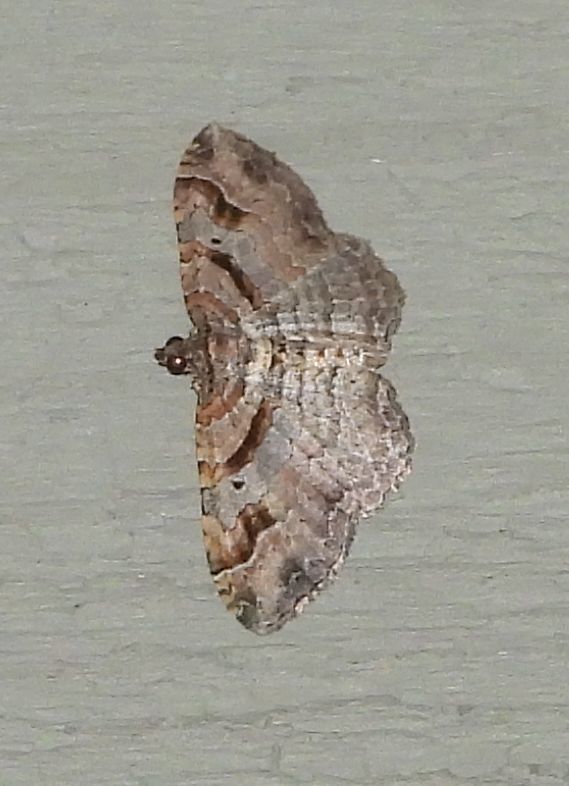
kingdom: Animalia
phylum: Arthropoda
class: Insecta
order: Lepidoptera
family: Geometridae
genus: Costaconvexa
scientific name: Costaconvexa centrostrigaria
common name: Bent-line carpet
